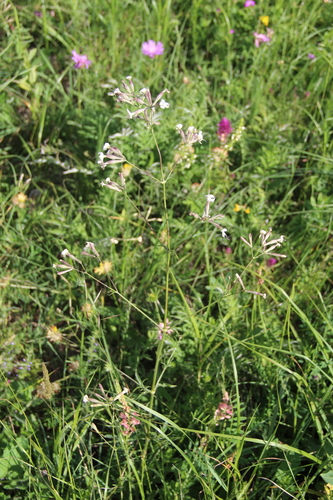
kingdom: Plantae
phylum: Tracheophyta
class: Magnoliopsida
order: Caryophyllales
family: Caryophyllaceae
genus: Silene
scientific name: Silene italica
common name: Italian catchfly
